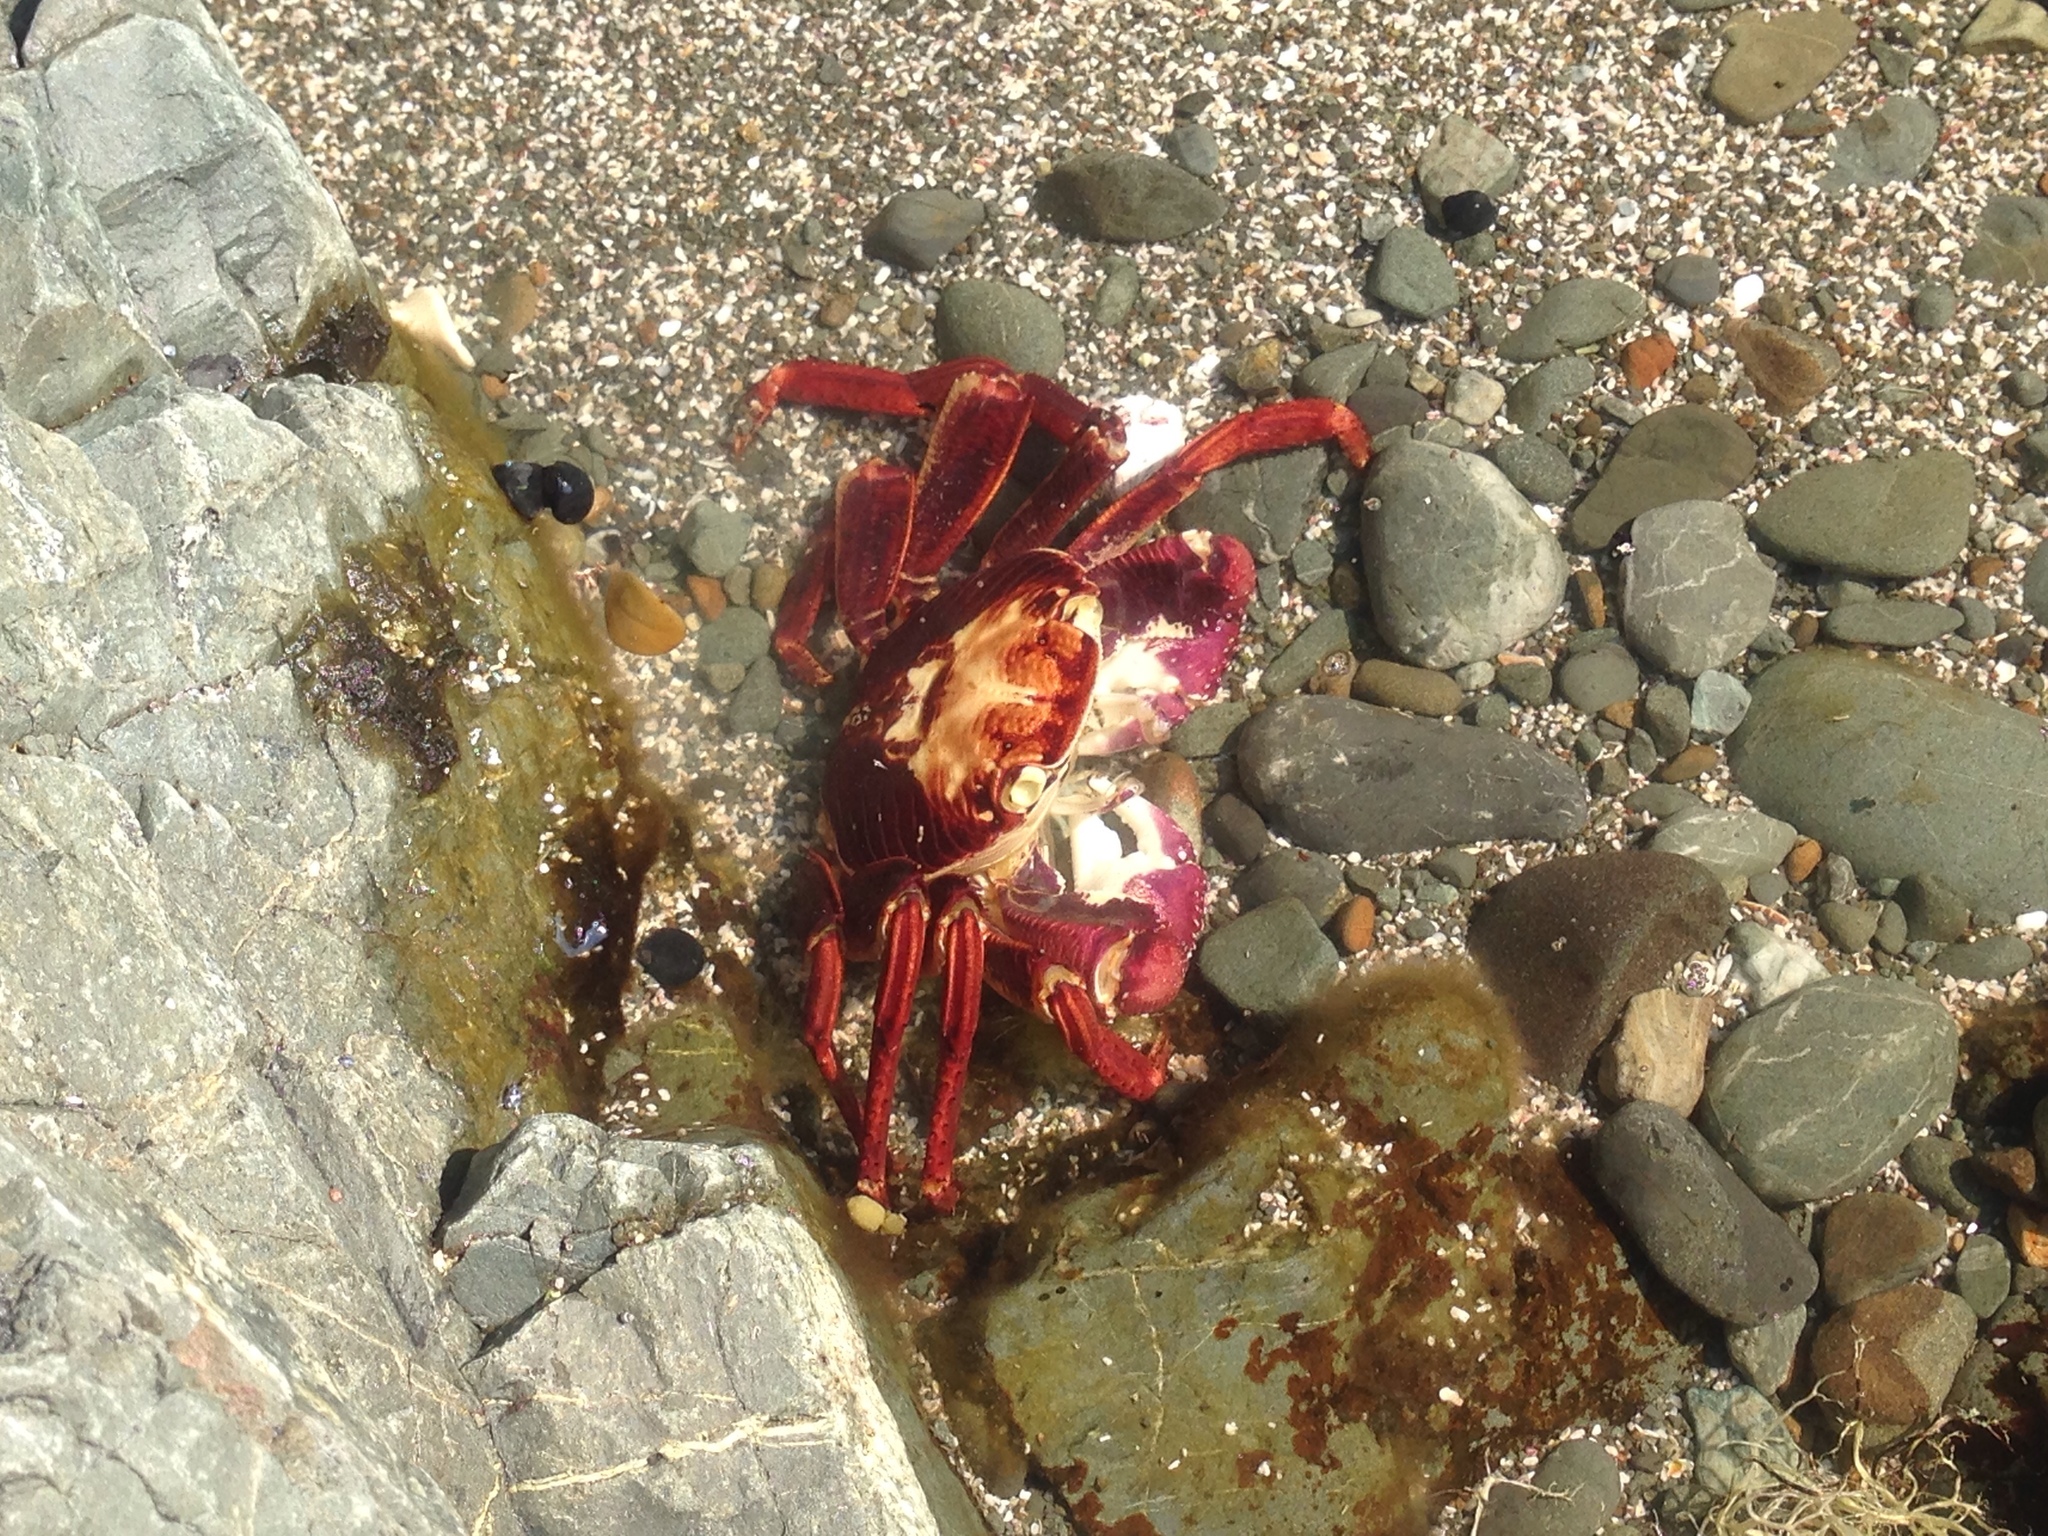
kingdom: Animalia
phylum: Arthropoda
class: Malacostraca
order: Decapoda
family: Grapsidae
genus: Leptograpsus
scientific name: Leptograpsus variegatus
